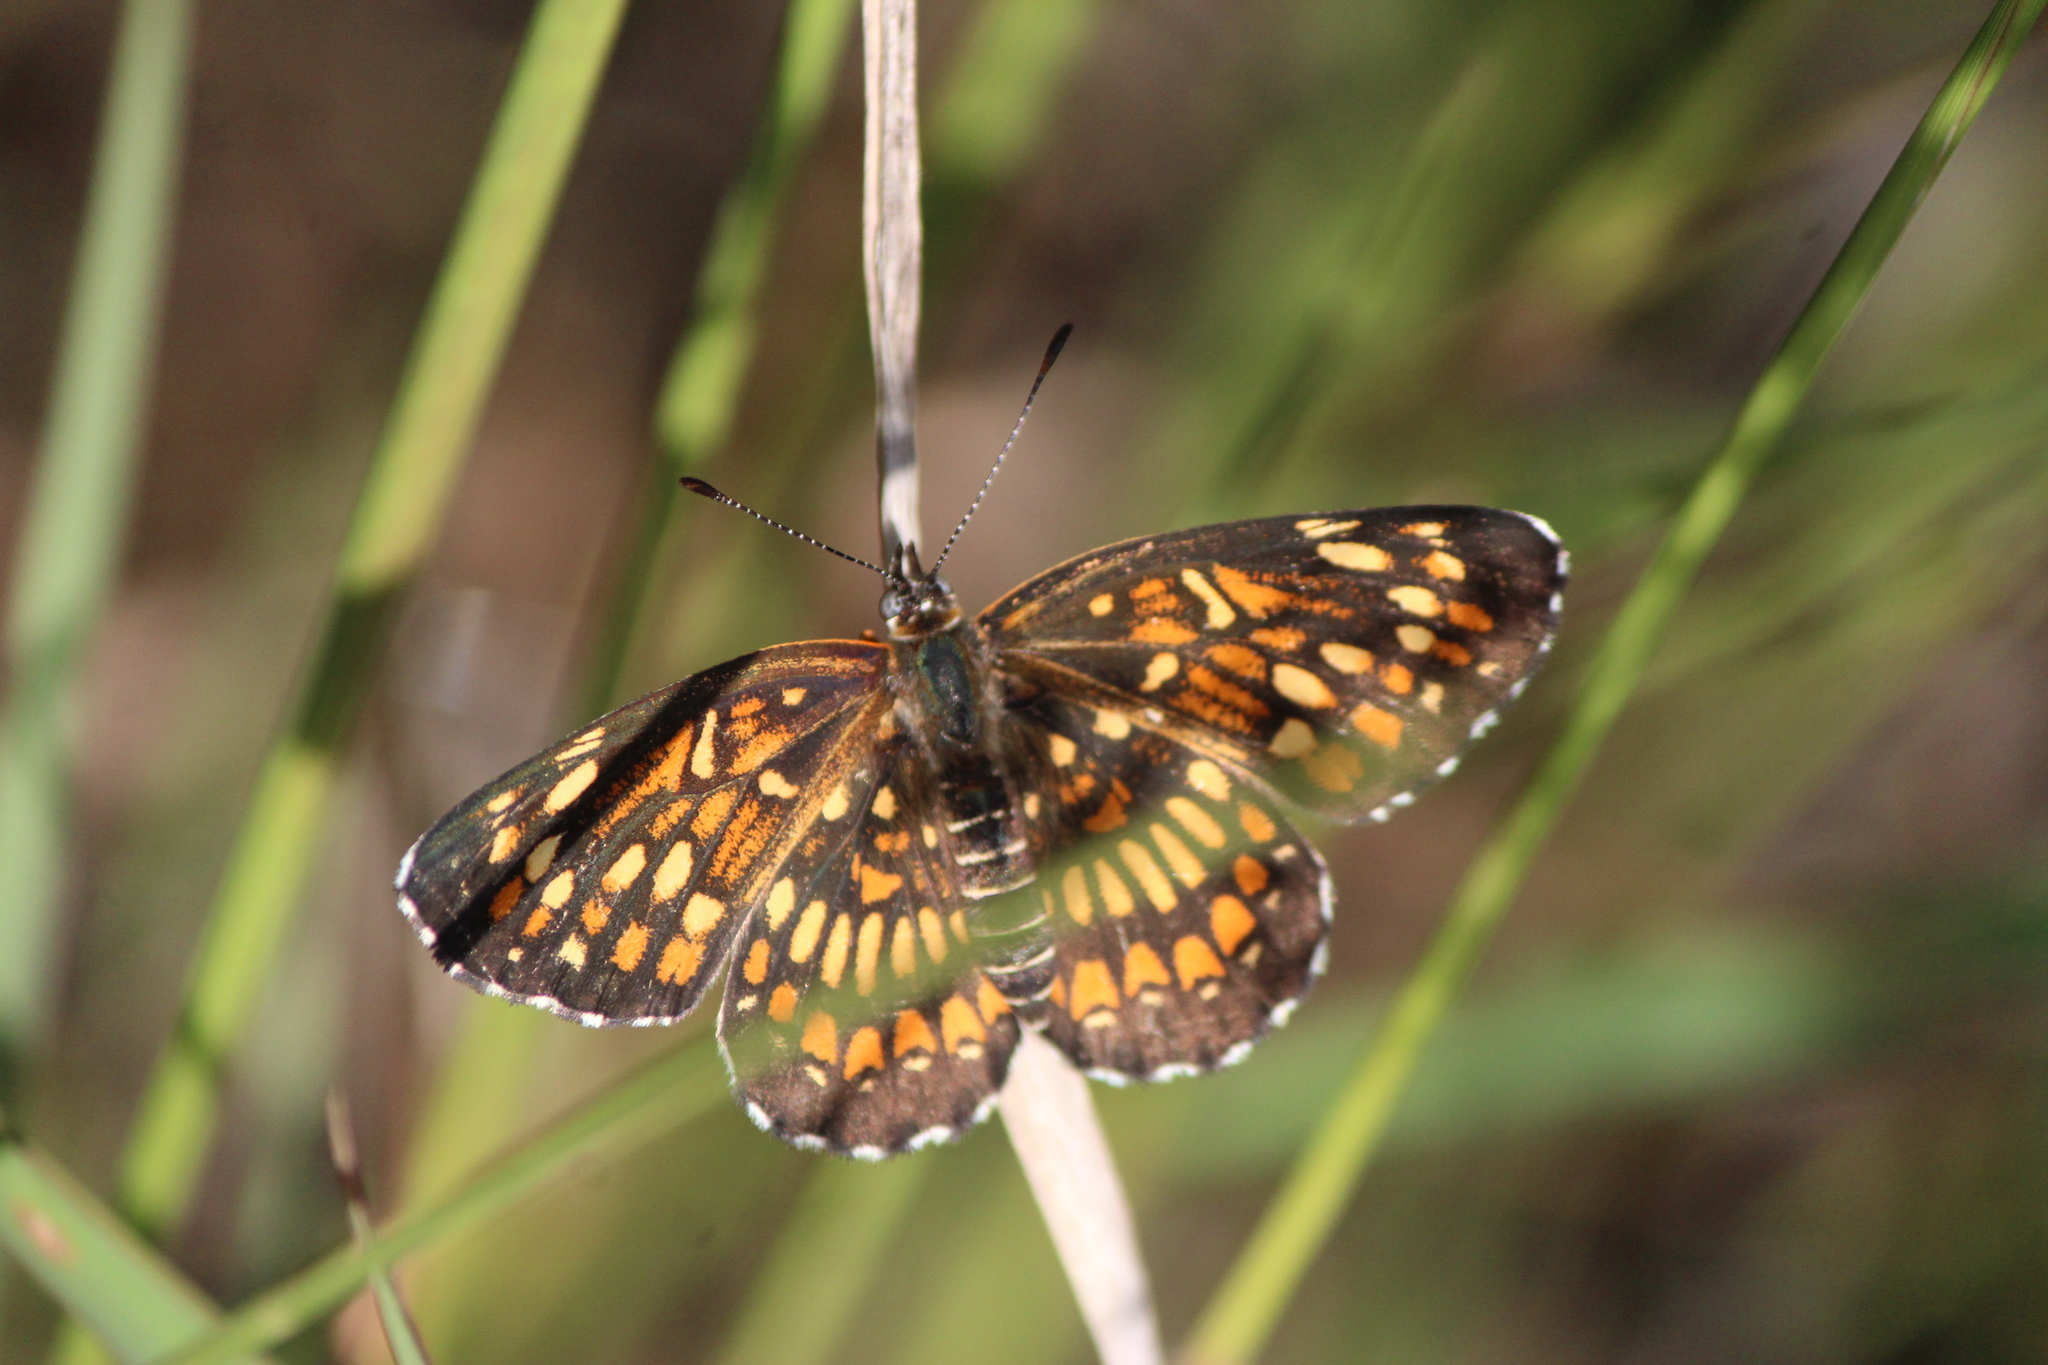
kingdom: Animalia
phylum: Arthropoda
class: Insecta
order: Lepidoptera
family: Nymphalidae
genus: Thessalia
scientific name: Thessalia theona
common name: Nymphalid moth
